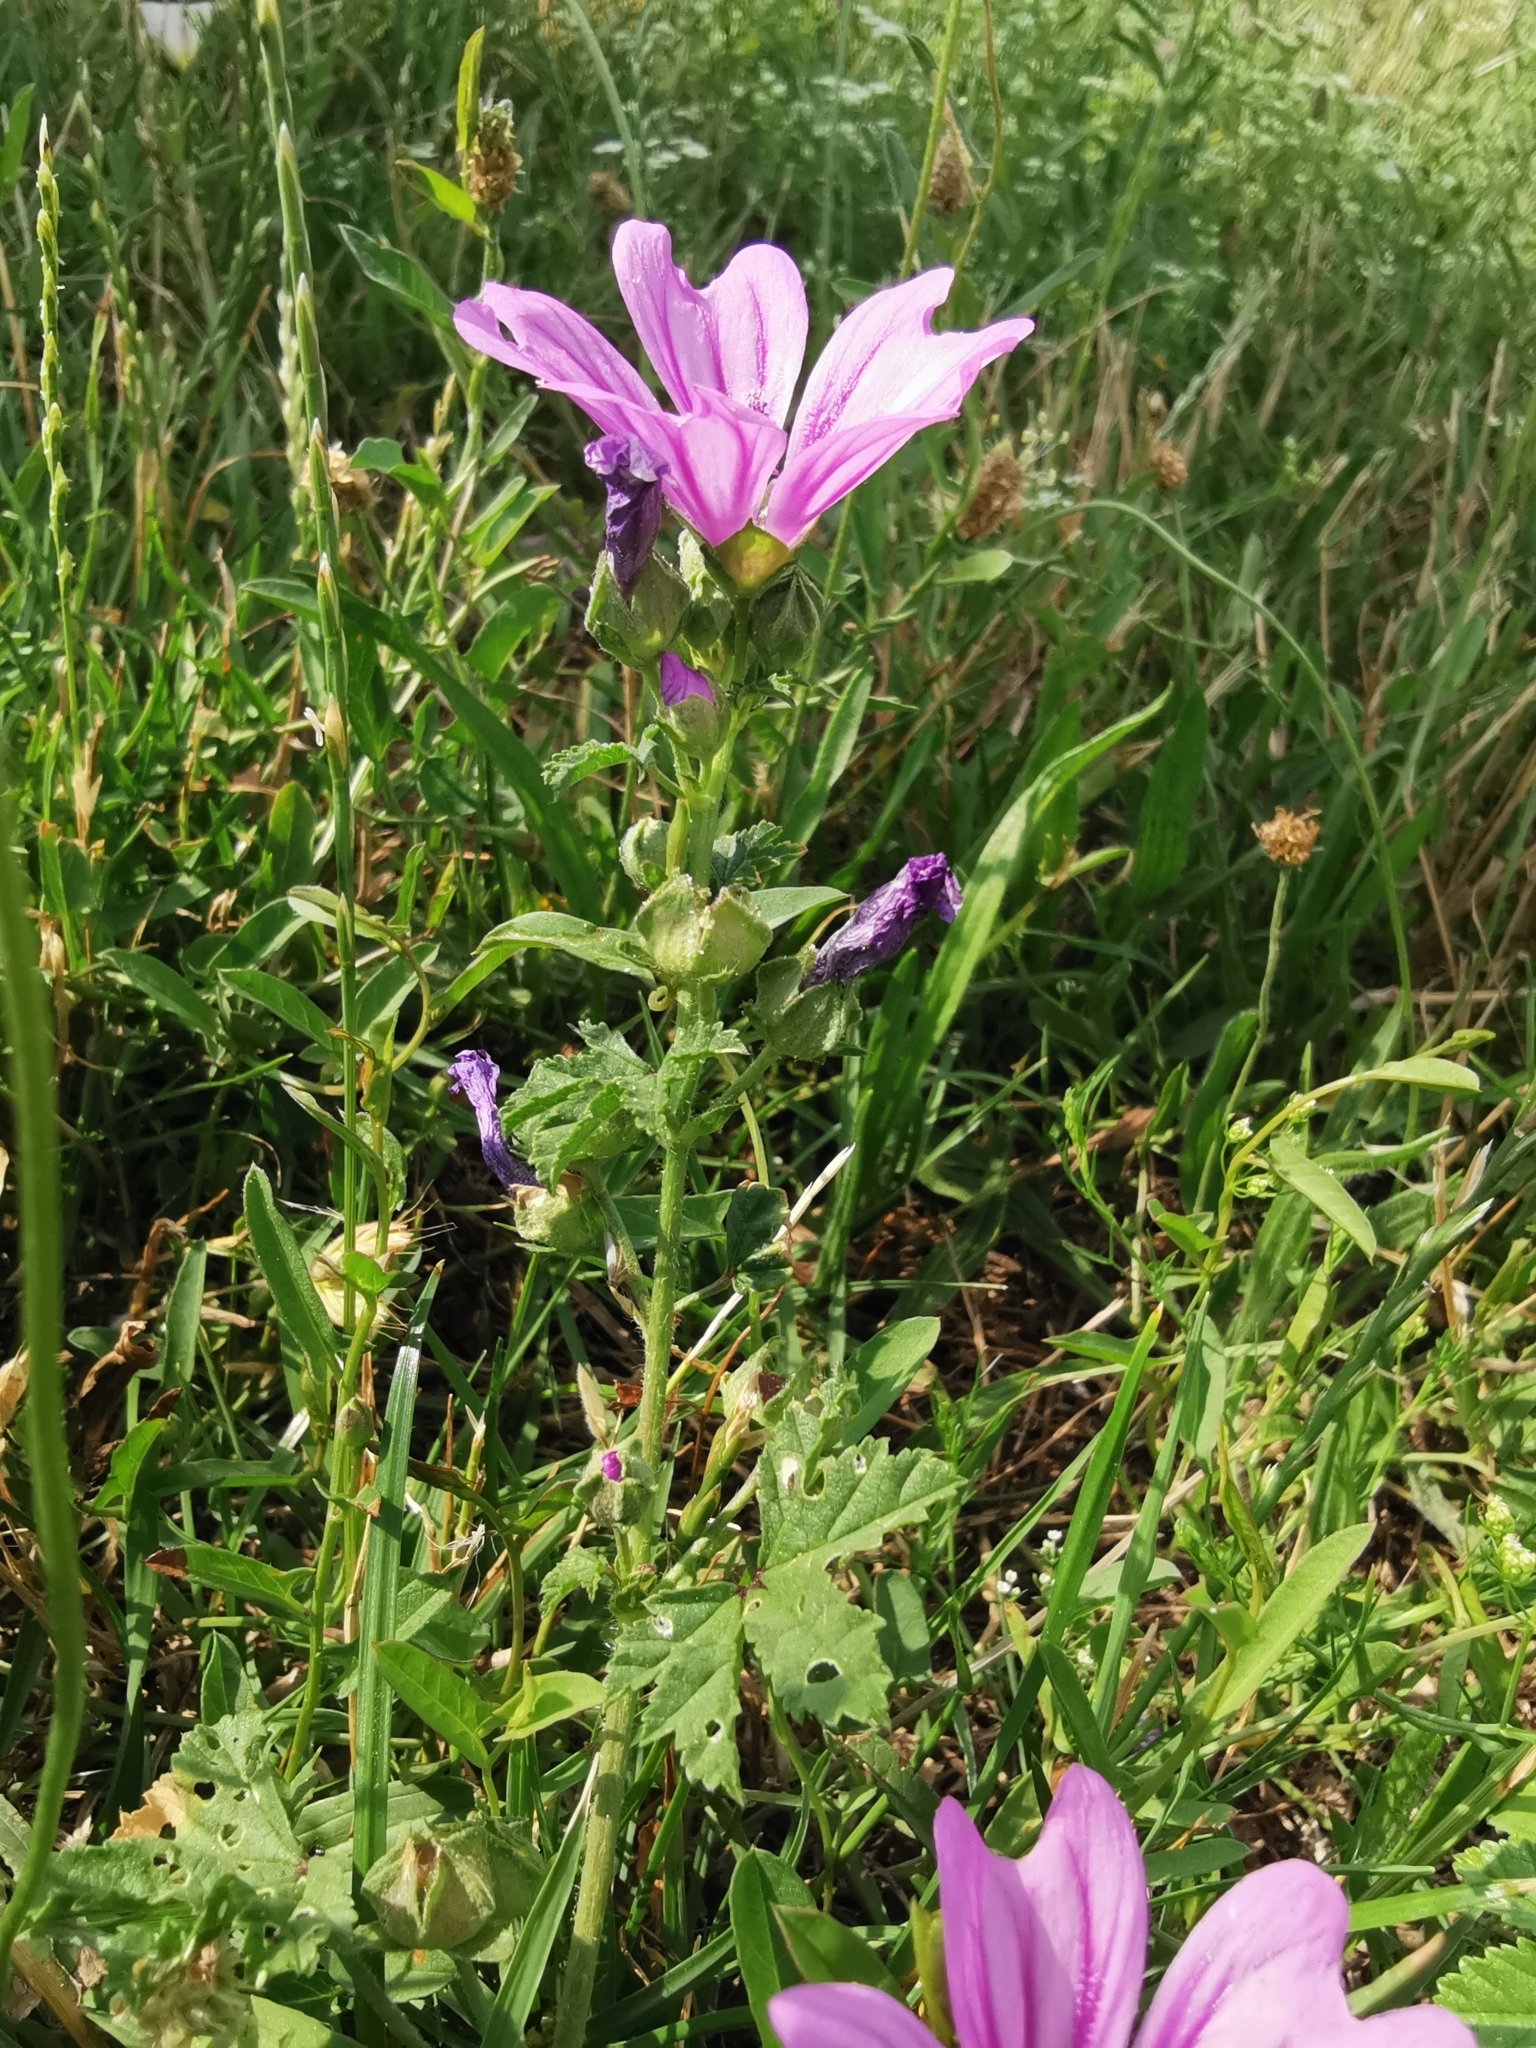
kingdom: Plantae
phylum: Tracheophyta
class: Magnoliopsida
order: Malvales
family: Malvaceae
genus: Malva
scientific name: Malva sylvestris
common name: Common mallow
